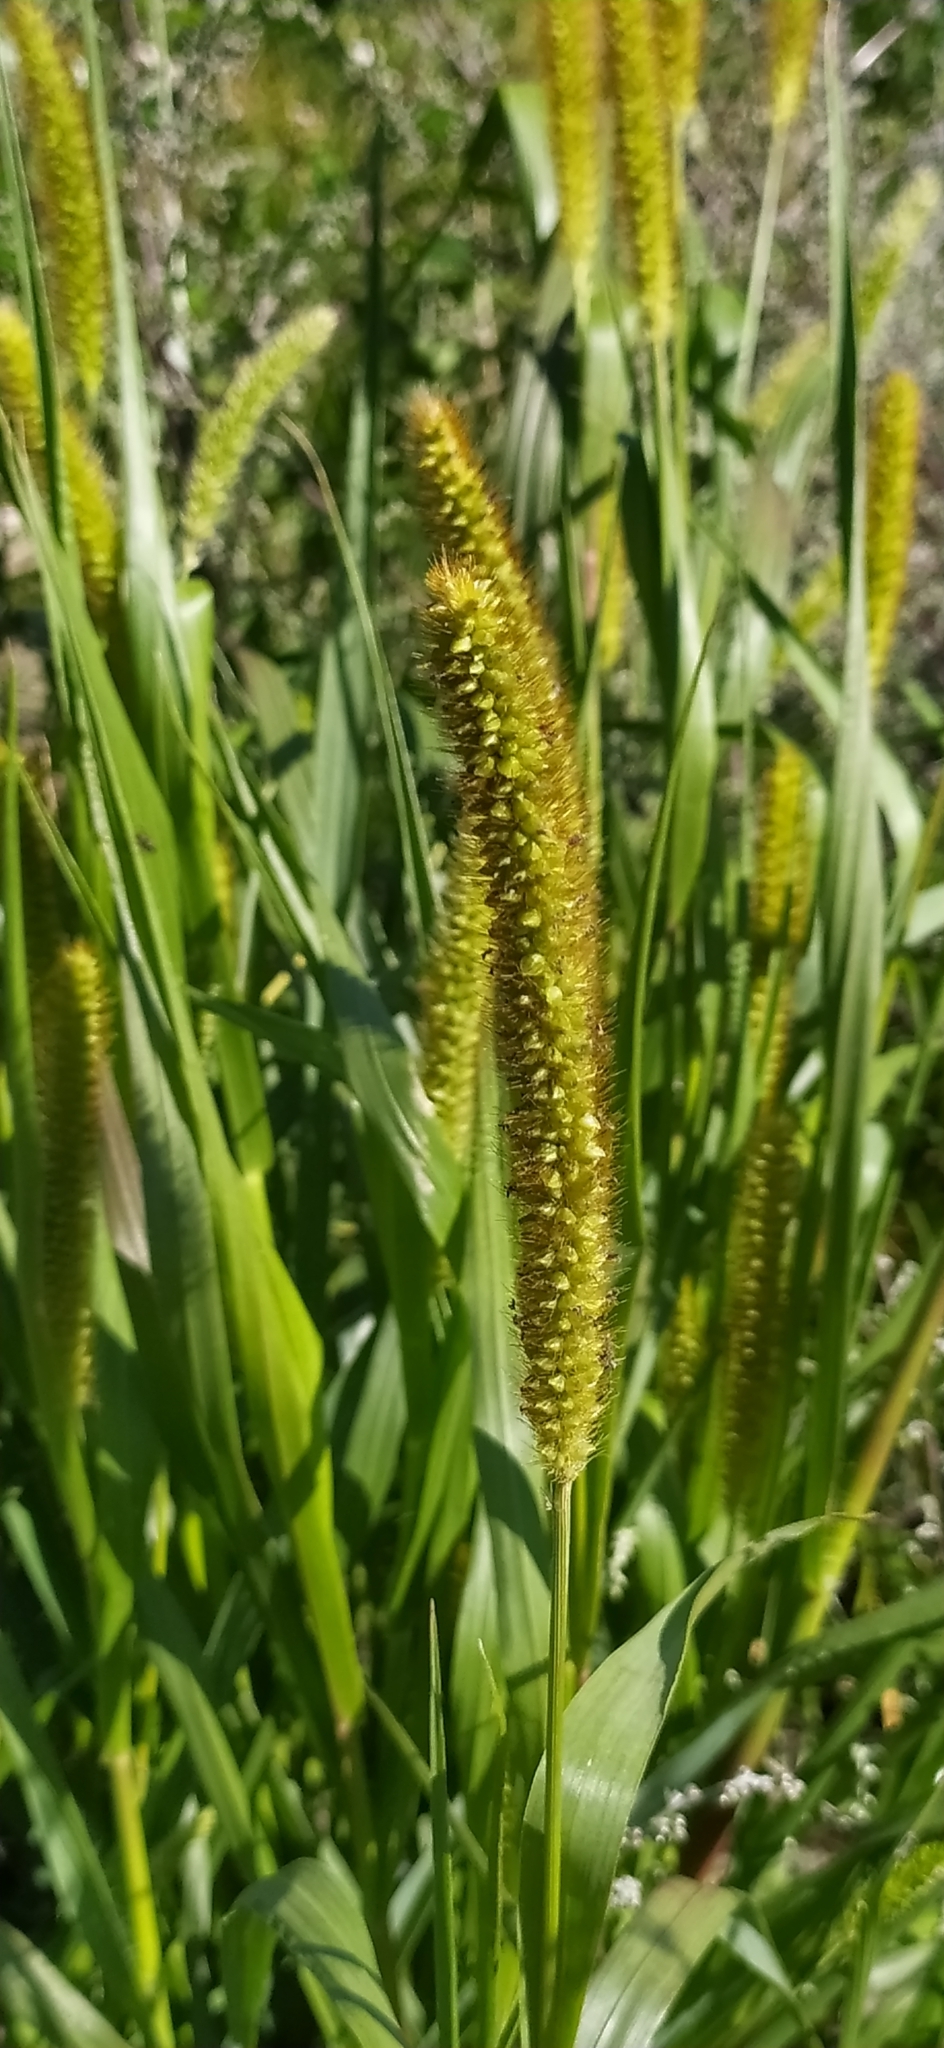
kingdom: Plantae
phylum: Tracheophyta
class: Liliopsida
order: Poales
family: Poaceae
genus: Setaria
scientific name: Setaria pumila
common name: Yellow bristle-grass
